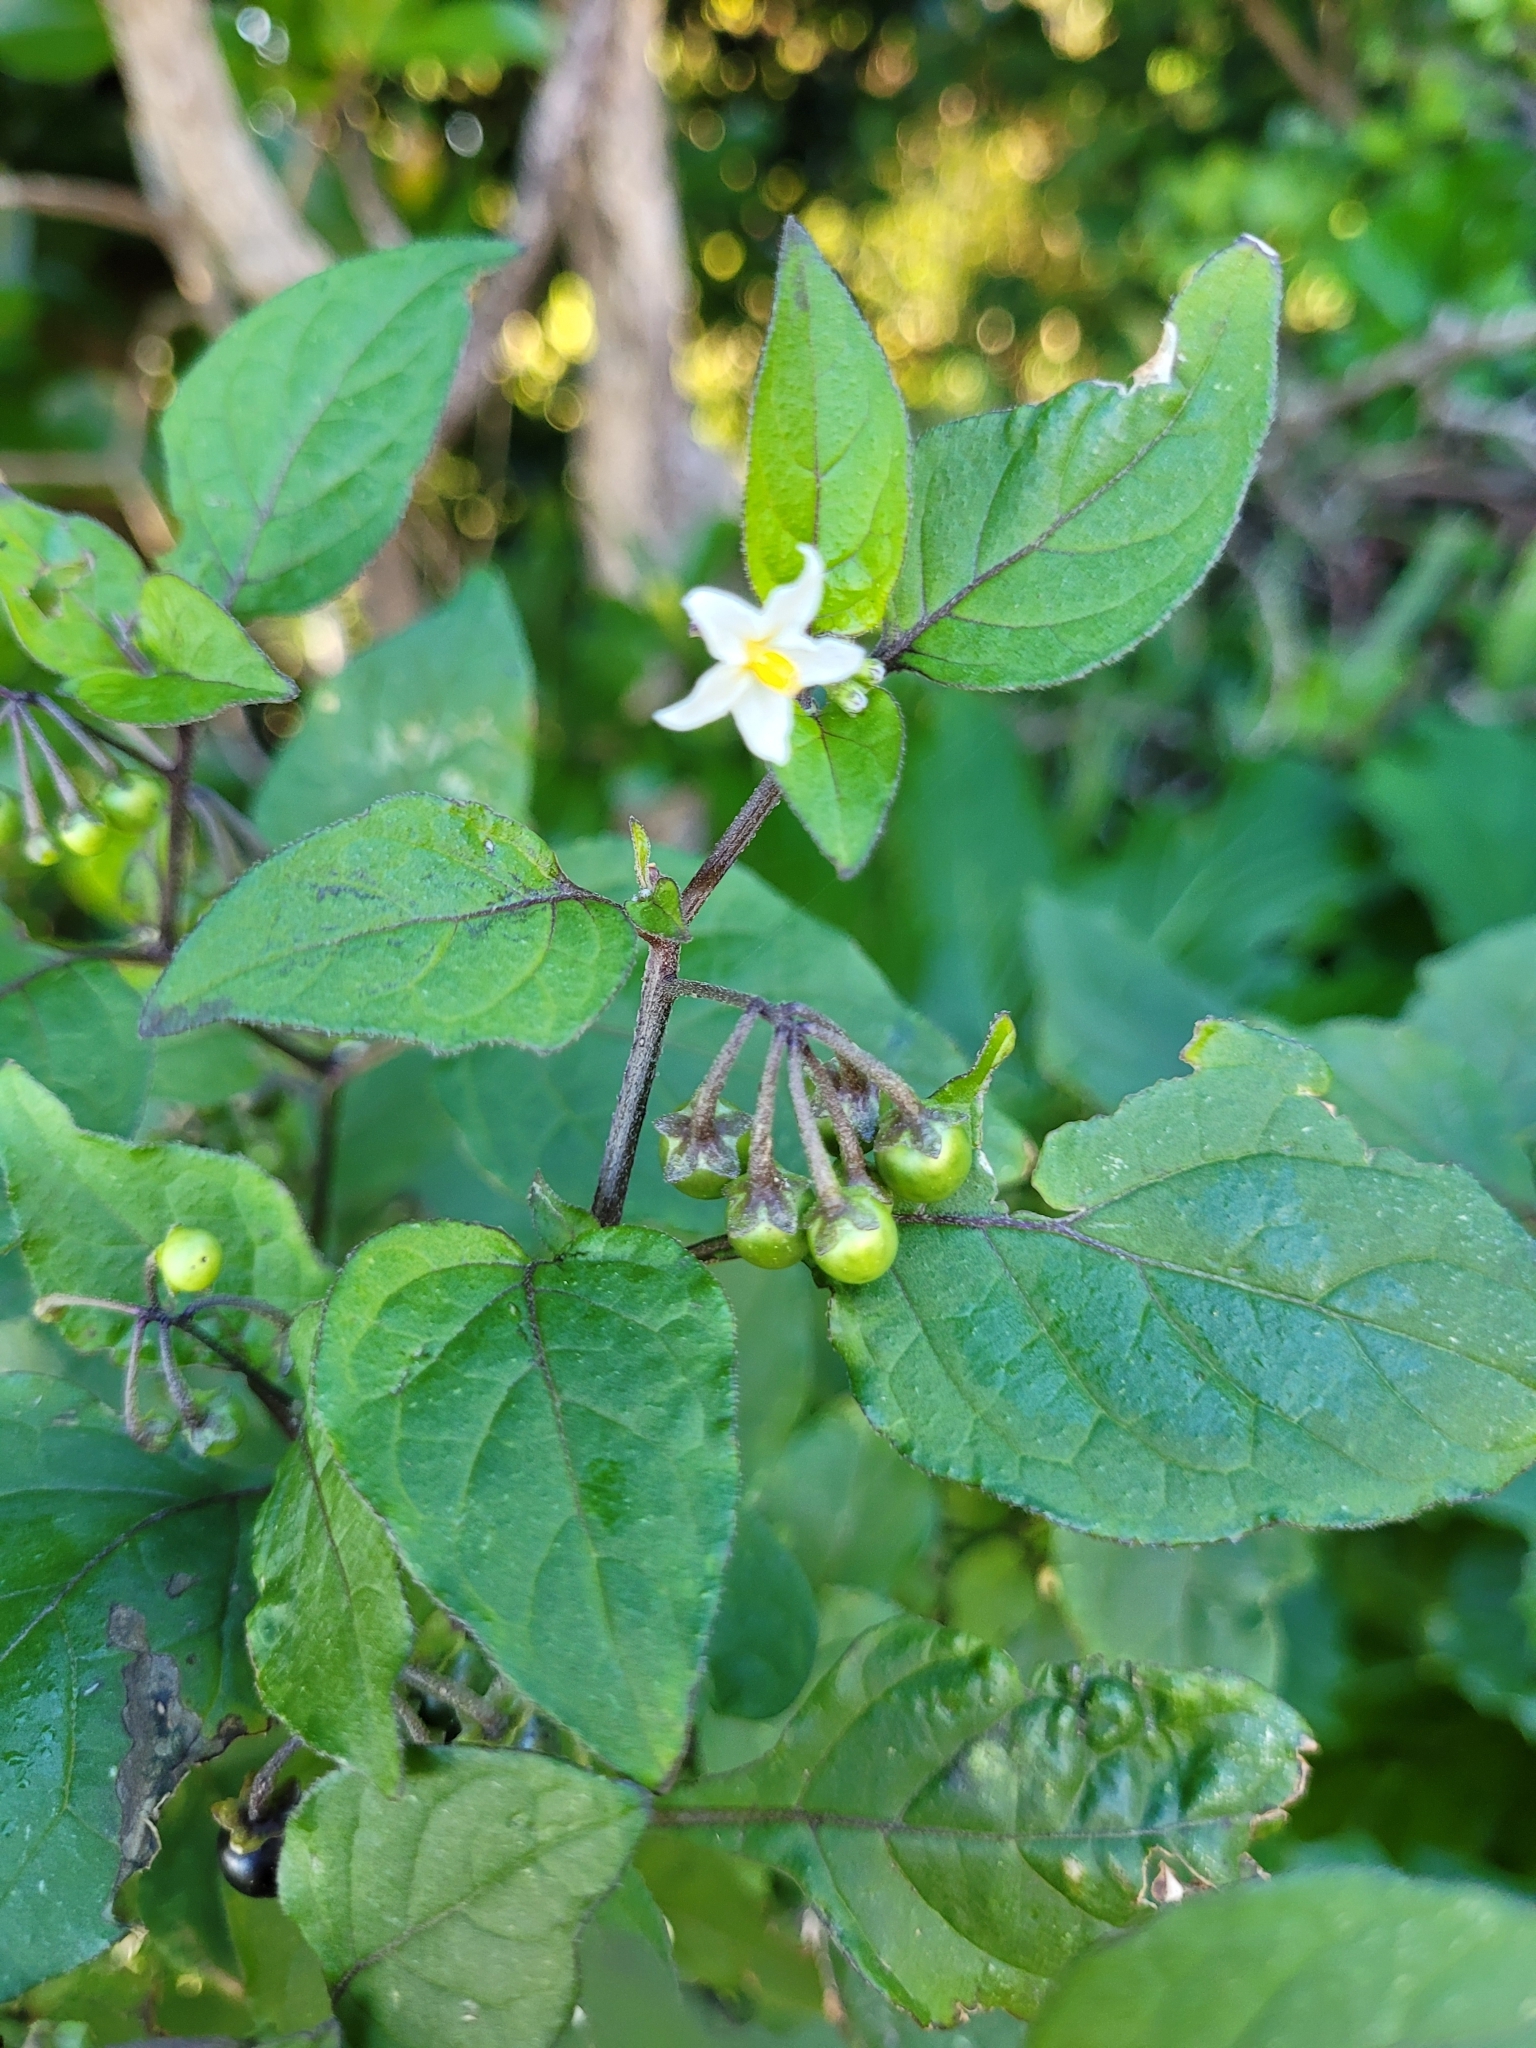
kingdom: Plantae
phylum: Tracheophyta
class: Magnoliopsida
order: Solanales
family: Solanaceae
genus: Solanum
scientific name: Solanum nigrum
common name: Black nightshade
